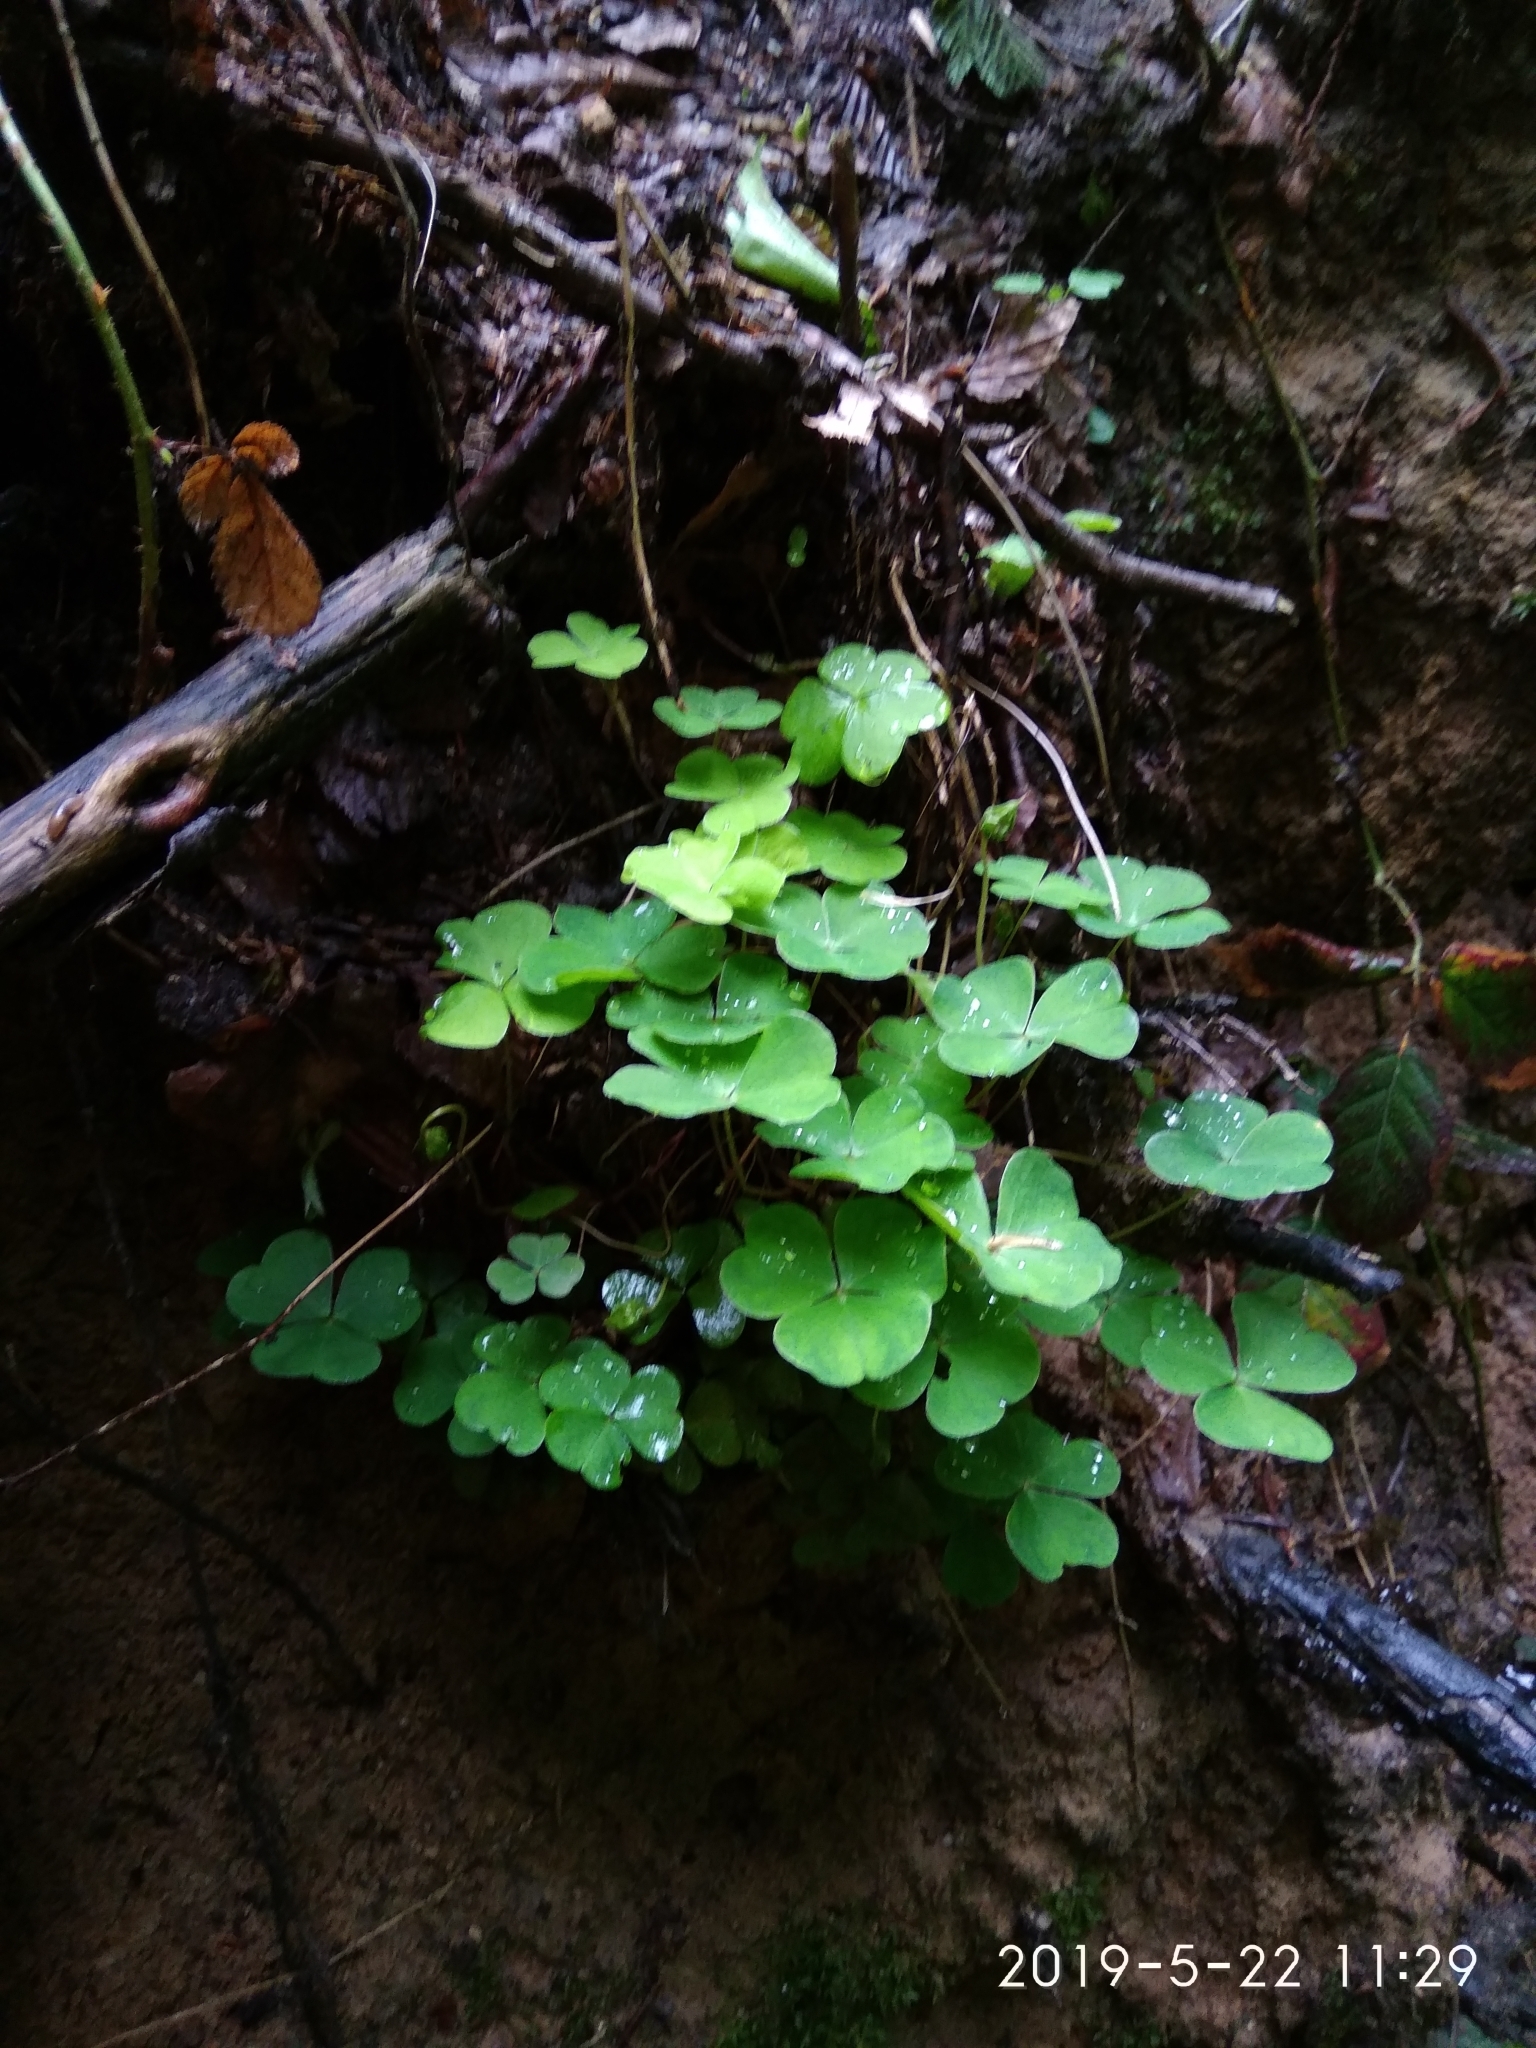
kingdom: Plantae
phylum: Tracheophyta
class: Magnoliopsida
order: Oxalidales
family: Oxalidaceae
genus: Oxalis
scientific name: Oxalis acetosella
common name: Wood-sorrel
